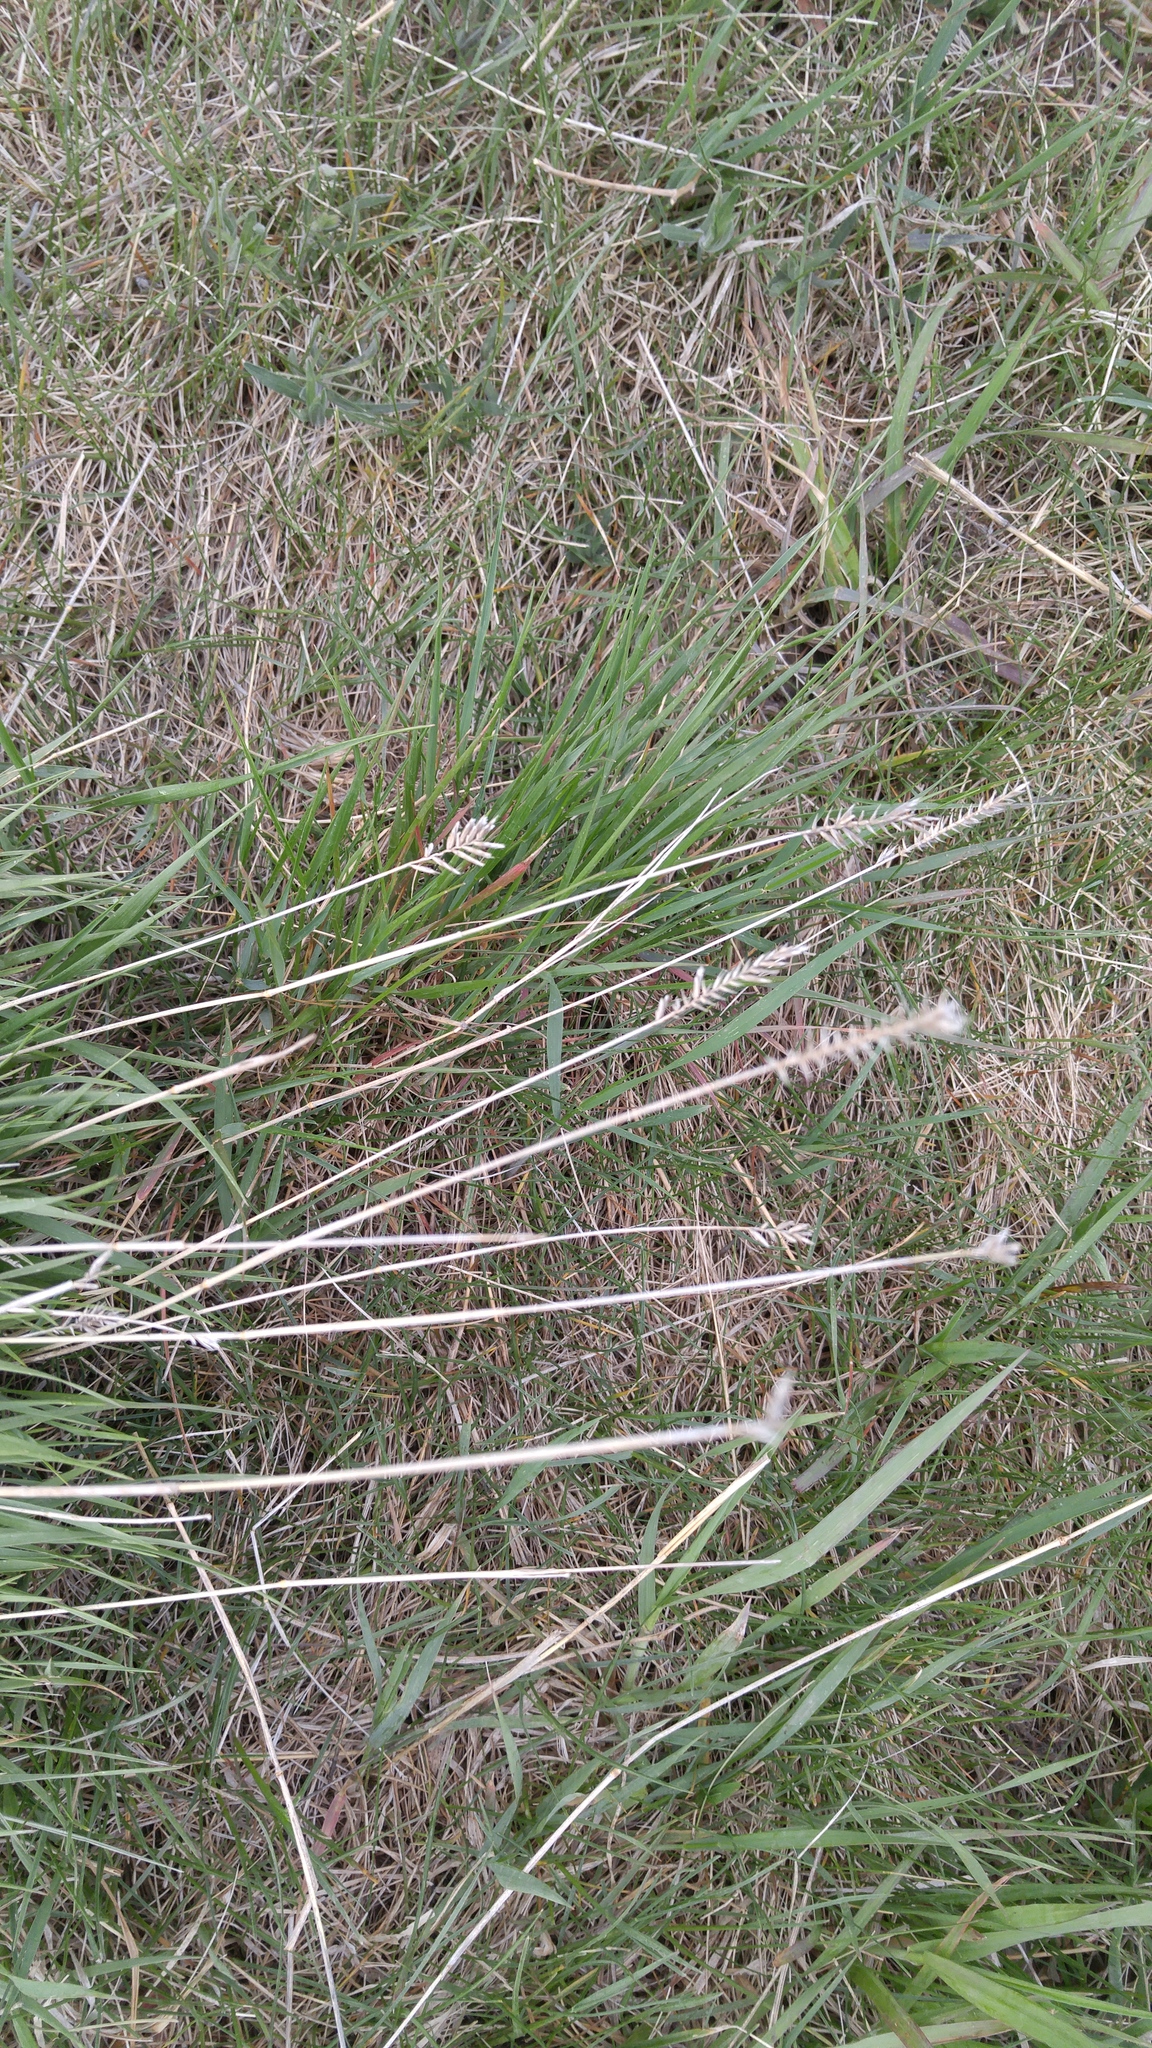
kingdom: Plantae
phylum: Tracheophyta
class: Liliopsida
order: Poales
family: Poaceae
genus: Agropyron
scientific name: Agropyron cristatum
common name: Crested wheatgrass
